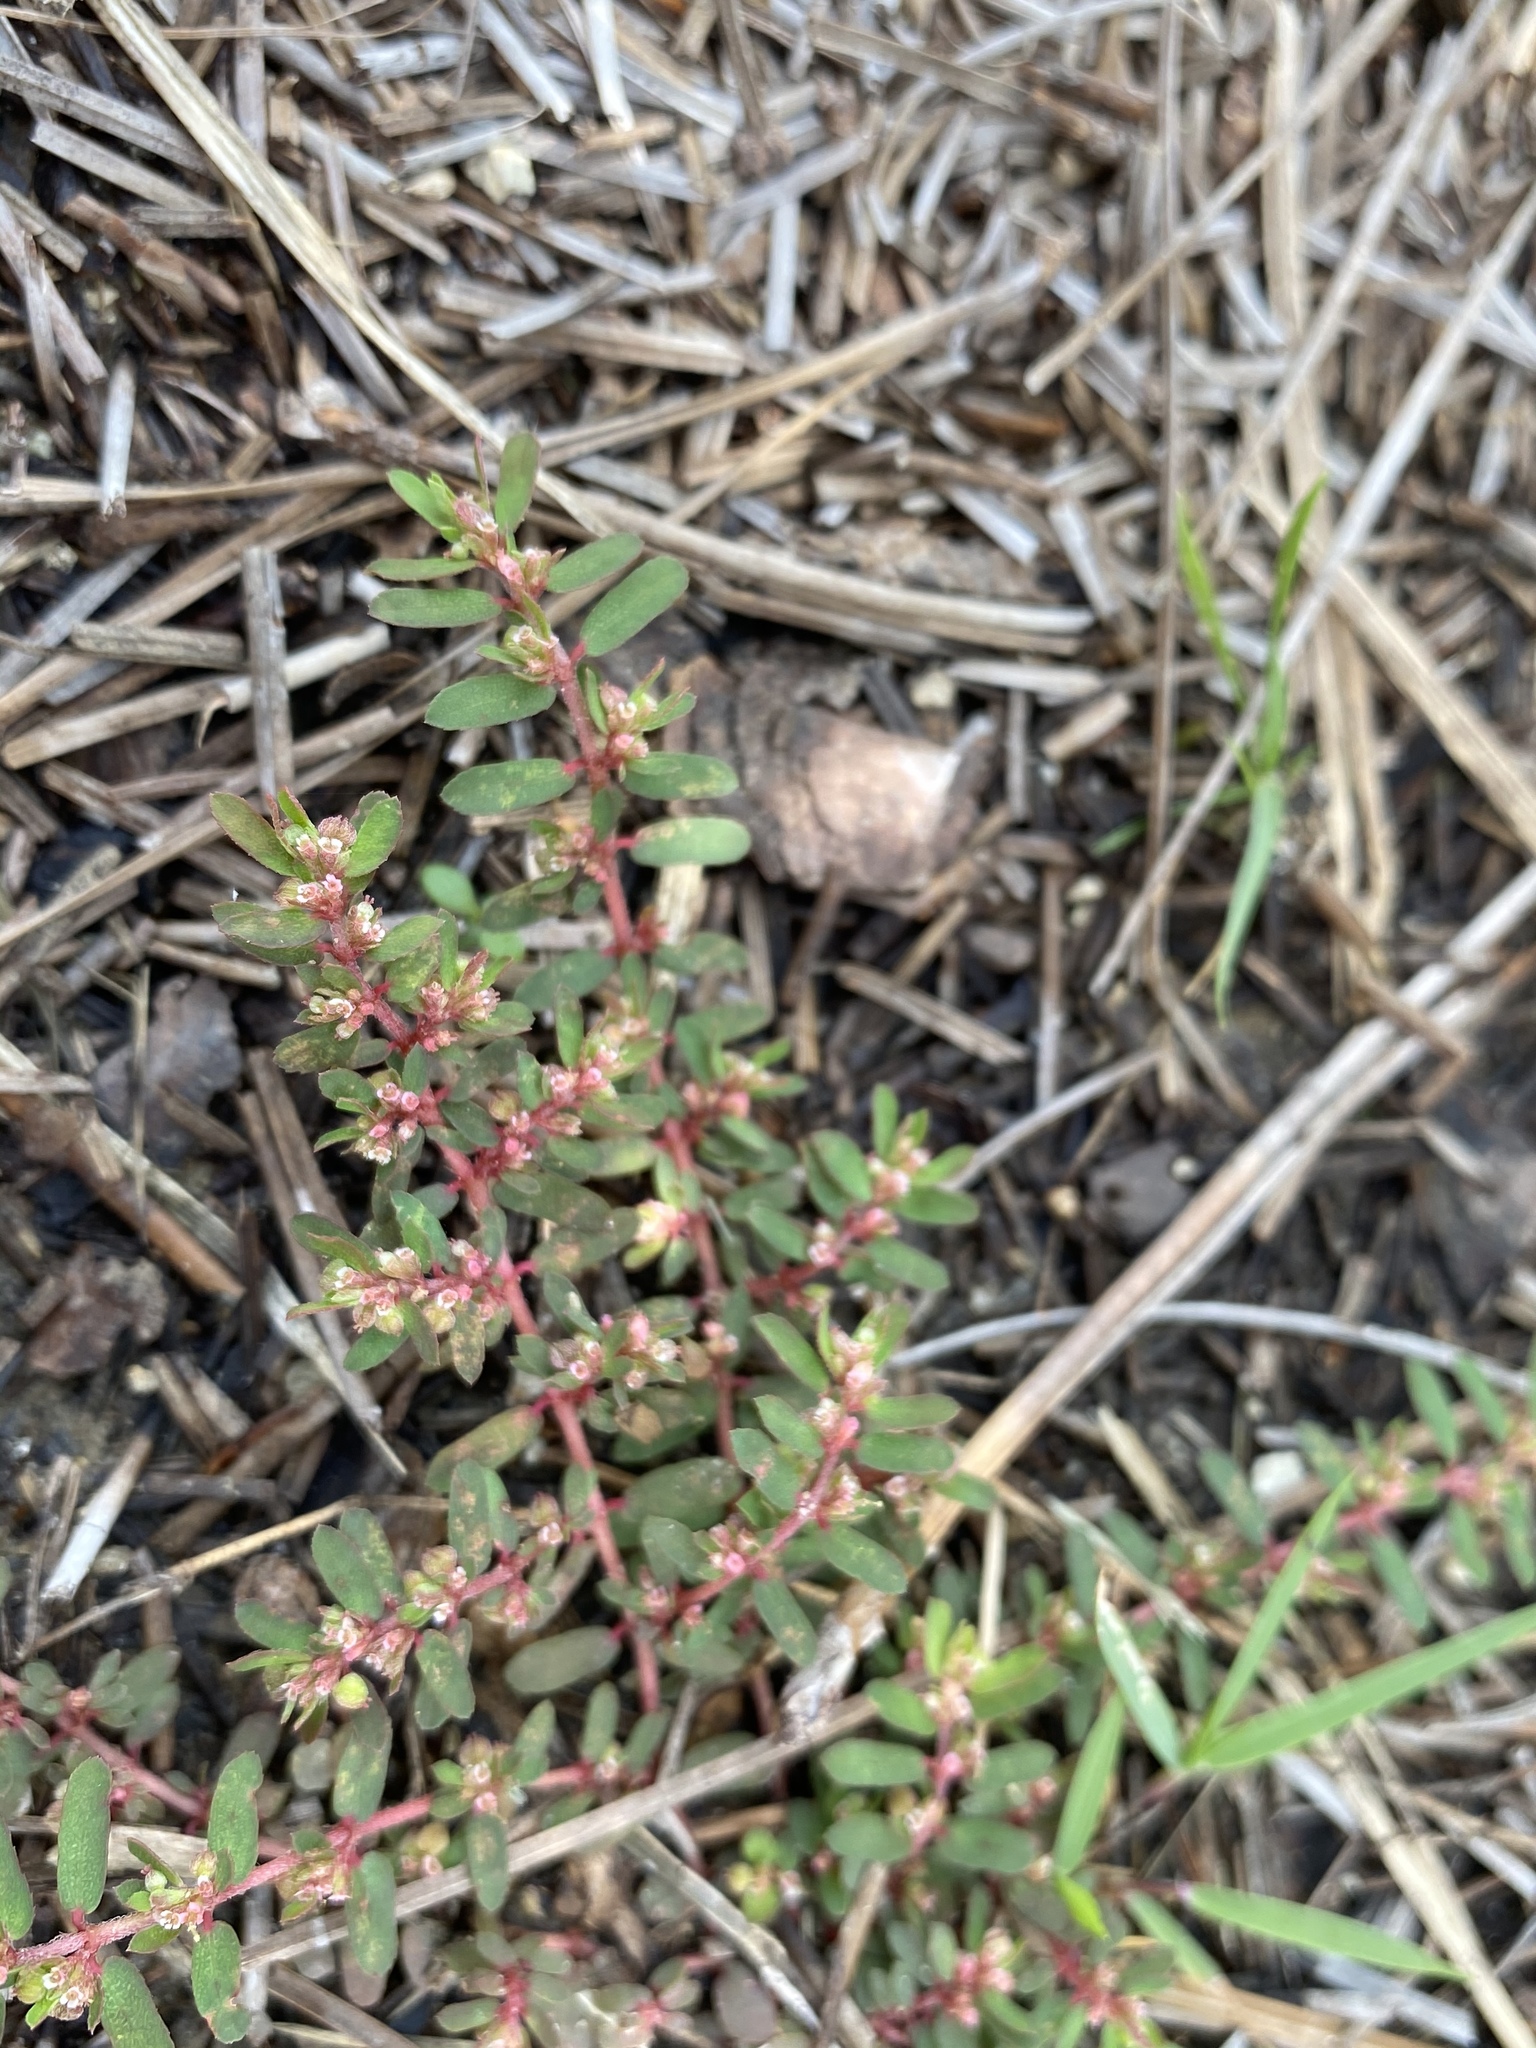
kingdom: Plantae
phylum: Tracheophyta
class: Magnoliopsida
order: Malpighiales
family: Euphorbiaceae
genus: Euphorbia
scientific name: Euphorbia maculata
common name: Spotted spurge
